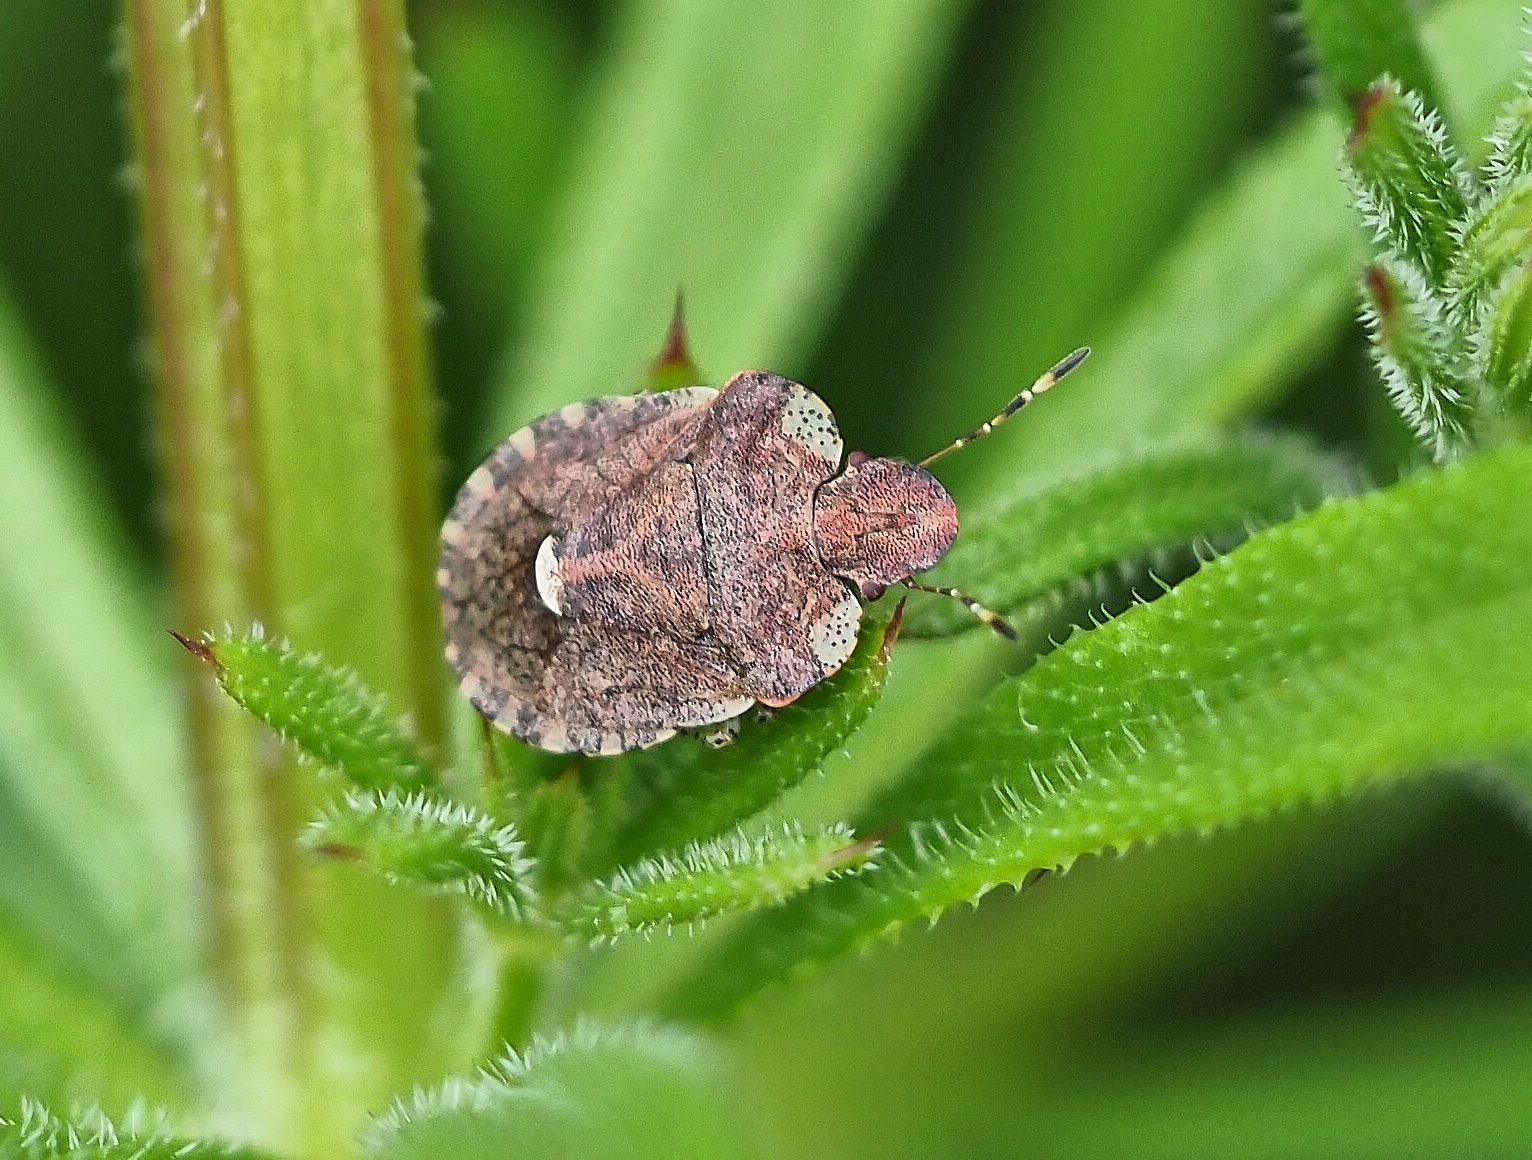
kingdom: Animalia
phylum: Arthropoda
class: Insecta
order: Hemiptera
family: Pentatomidae
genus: Dyroderes
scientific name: Dyroderes umbraculatus
